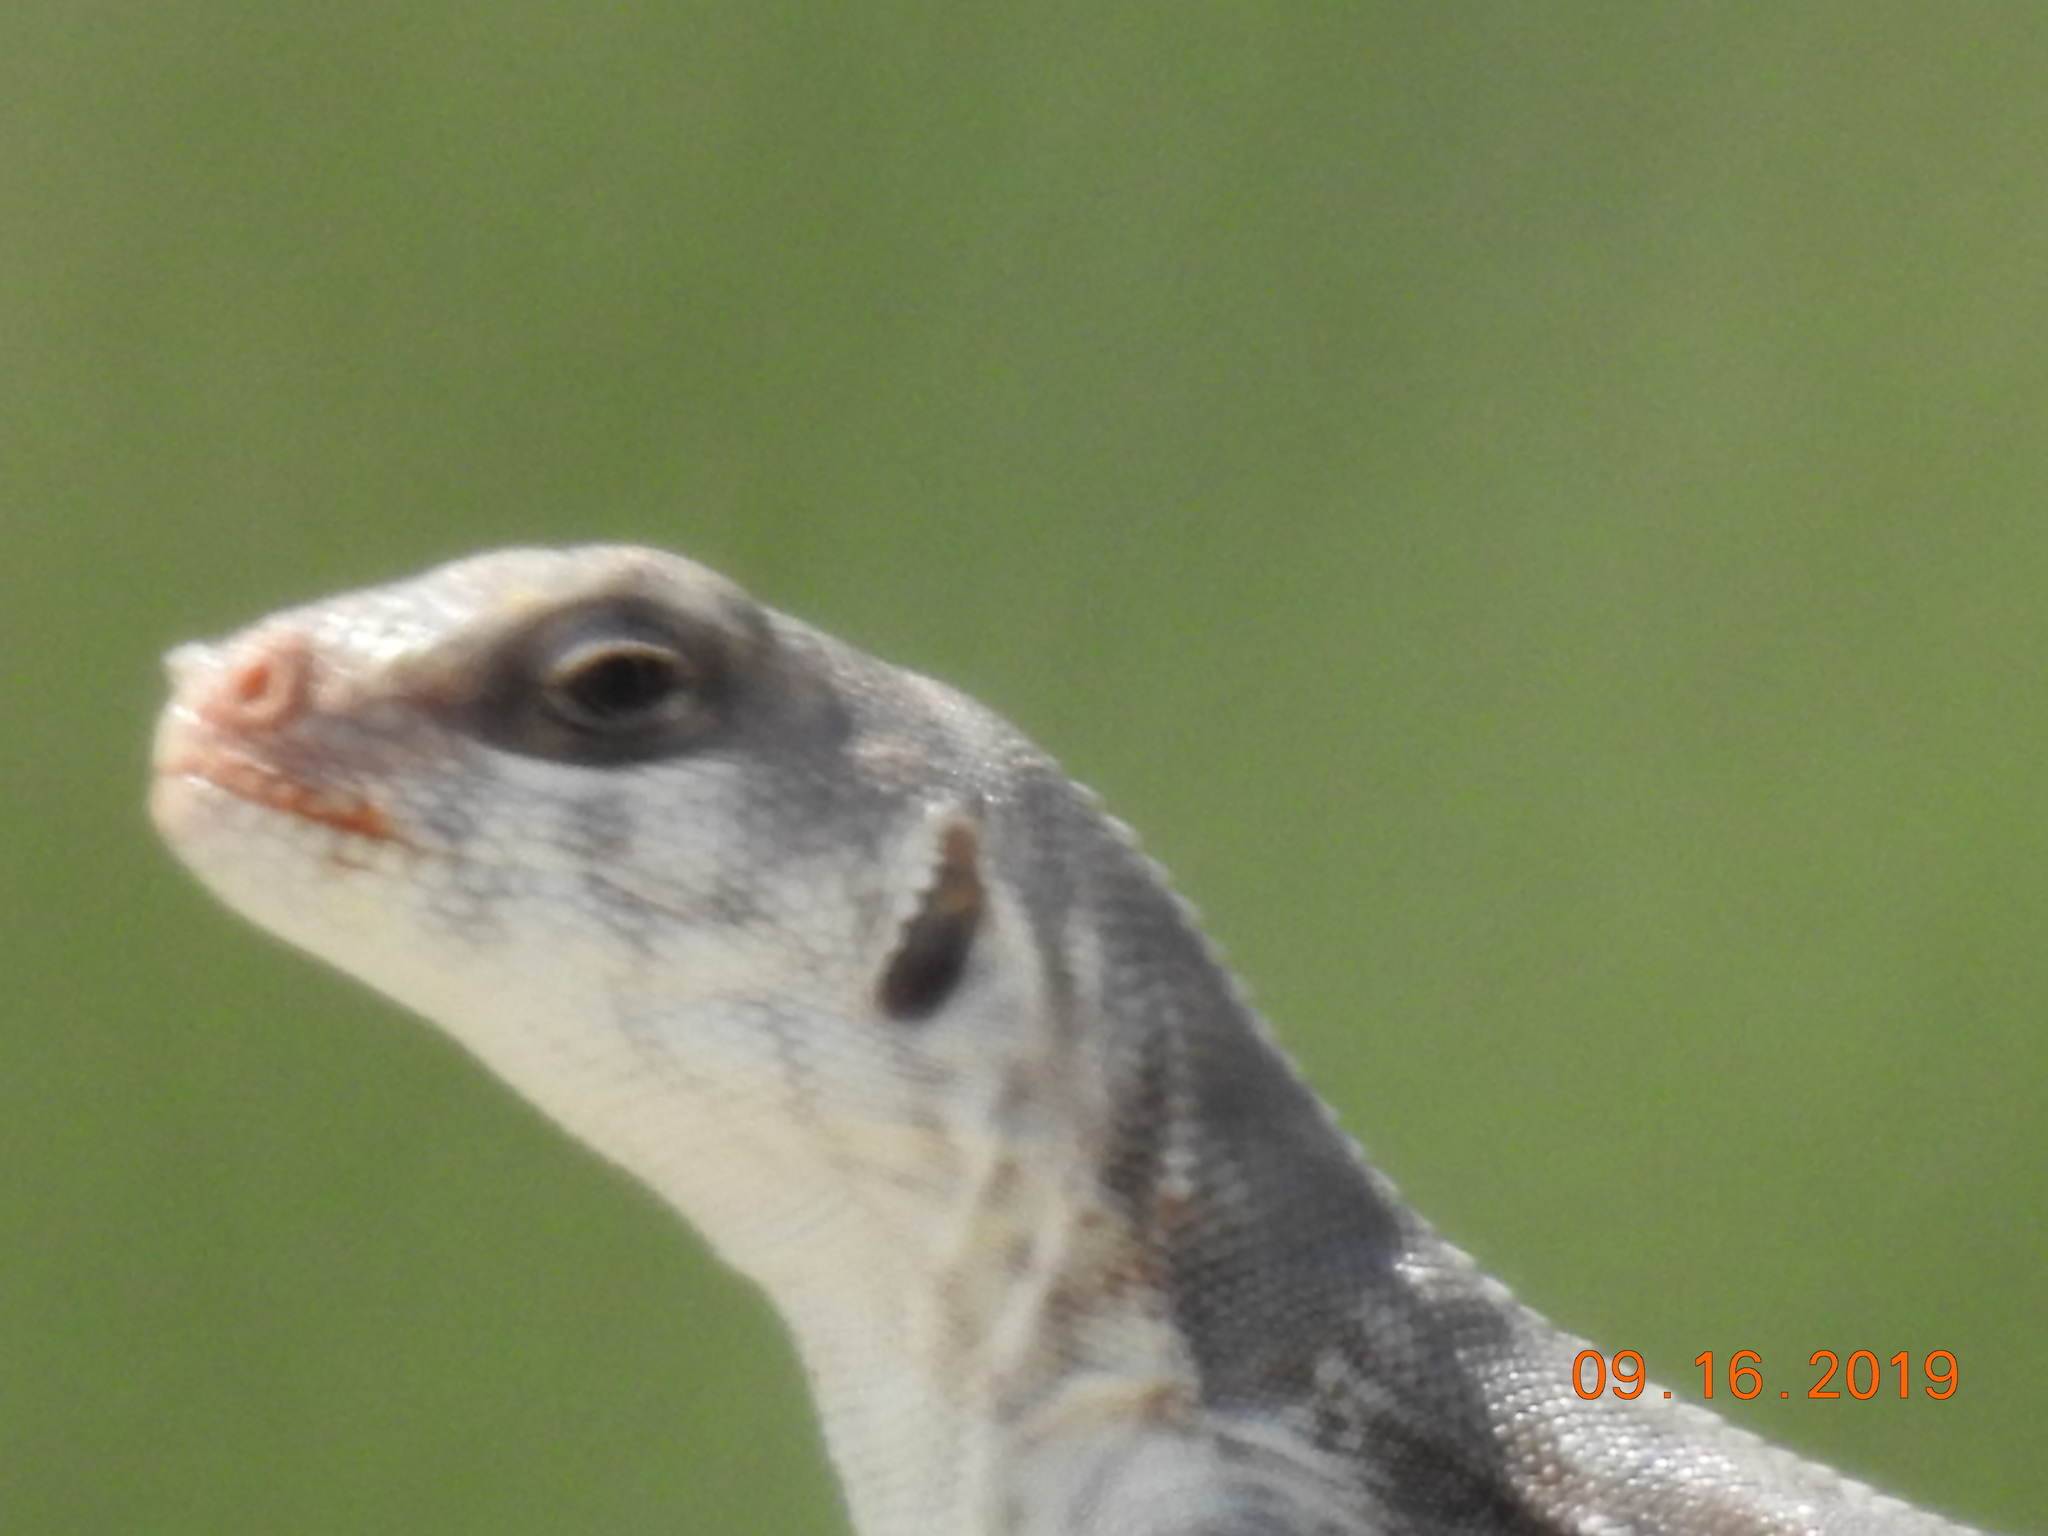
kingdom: Animalia
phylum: Chordata
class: Squamata
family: Iguanidae
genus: Dipsosaurus
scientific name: Dipsosaurus dorsalis
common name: Desert iguana
